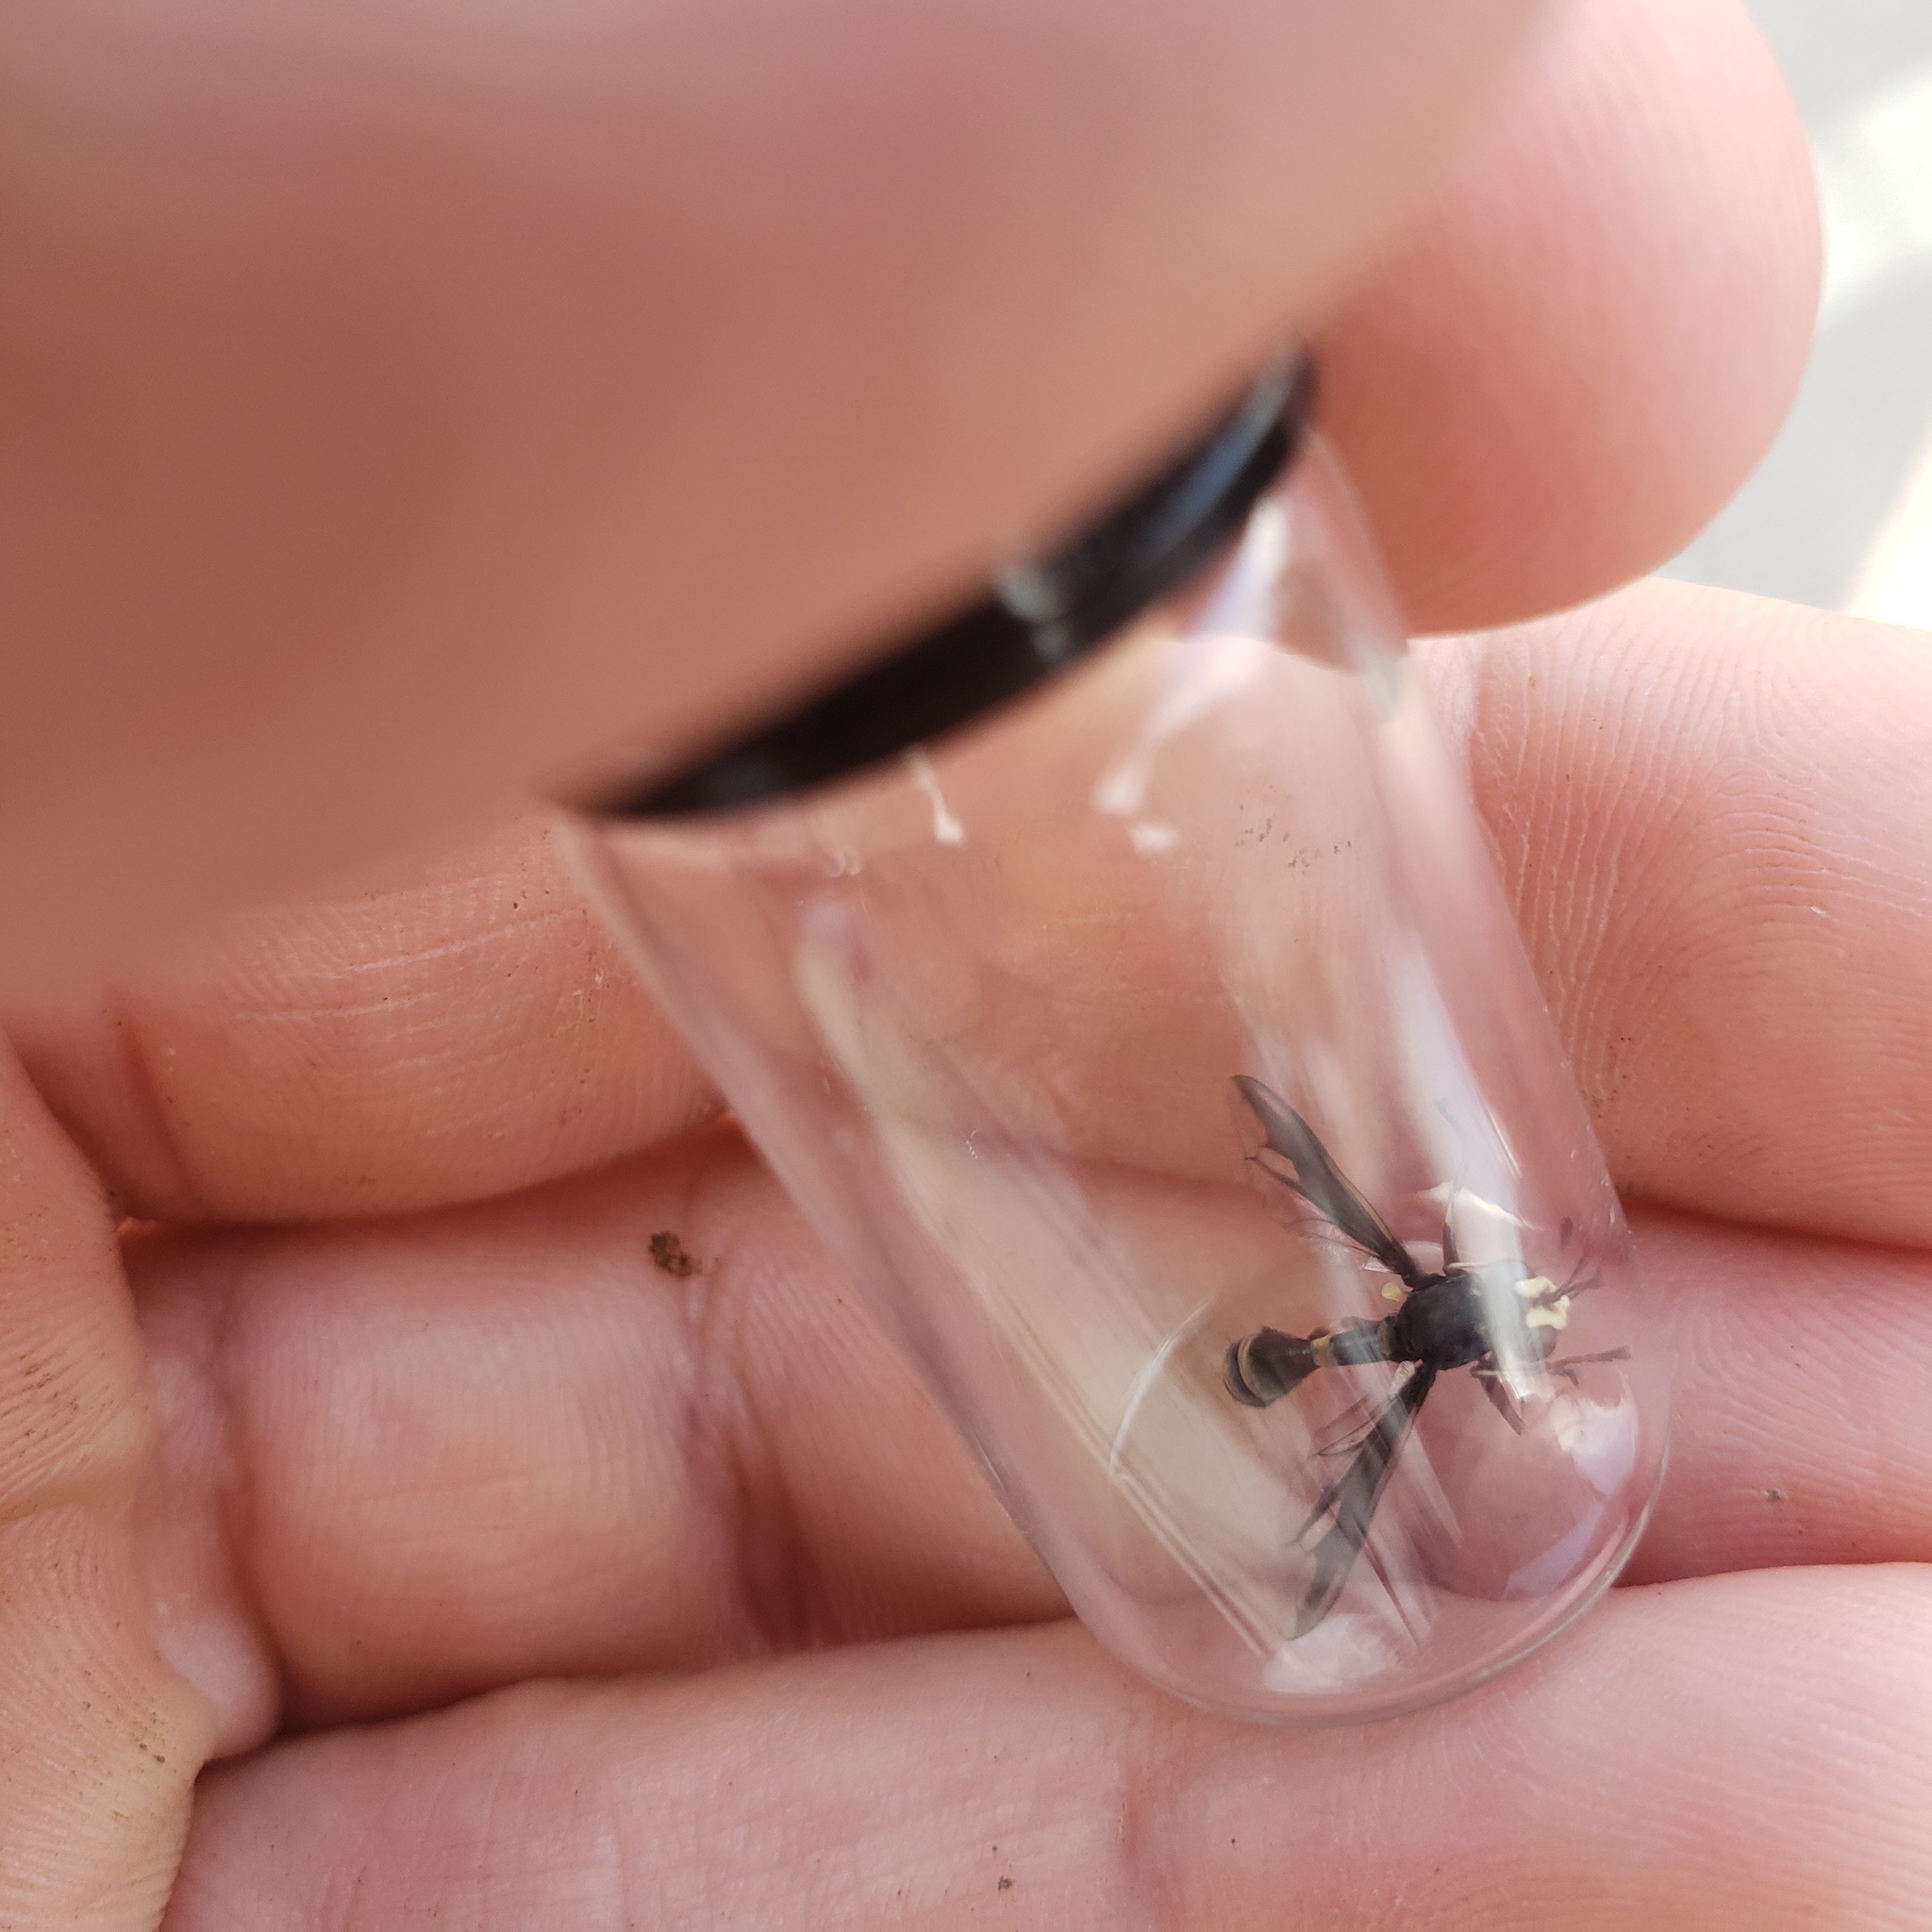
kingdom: Animalia
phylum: Arthropoda
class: Insecta
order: Diptera
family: Conopidae
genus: Physocephala
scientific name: Physocephala furcillata
